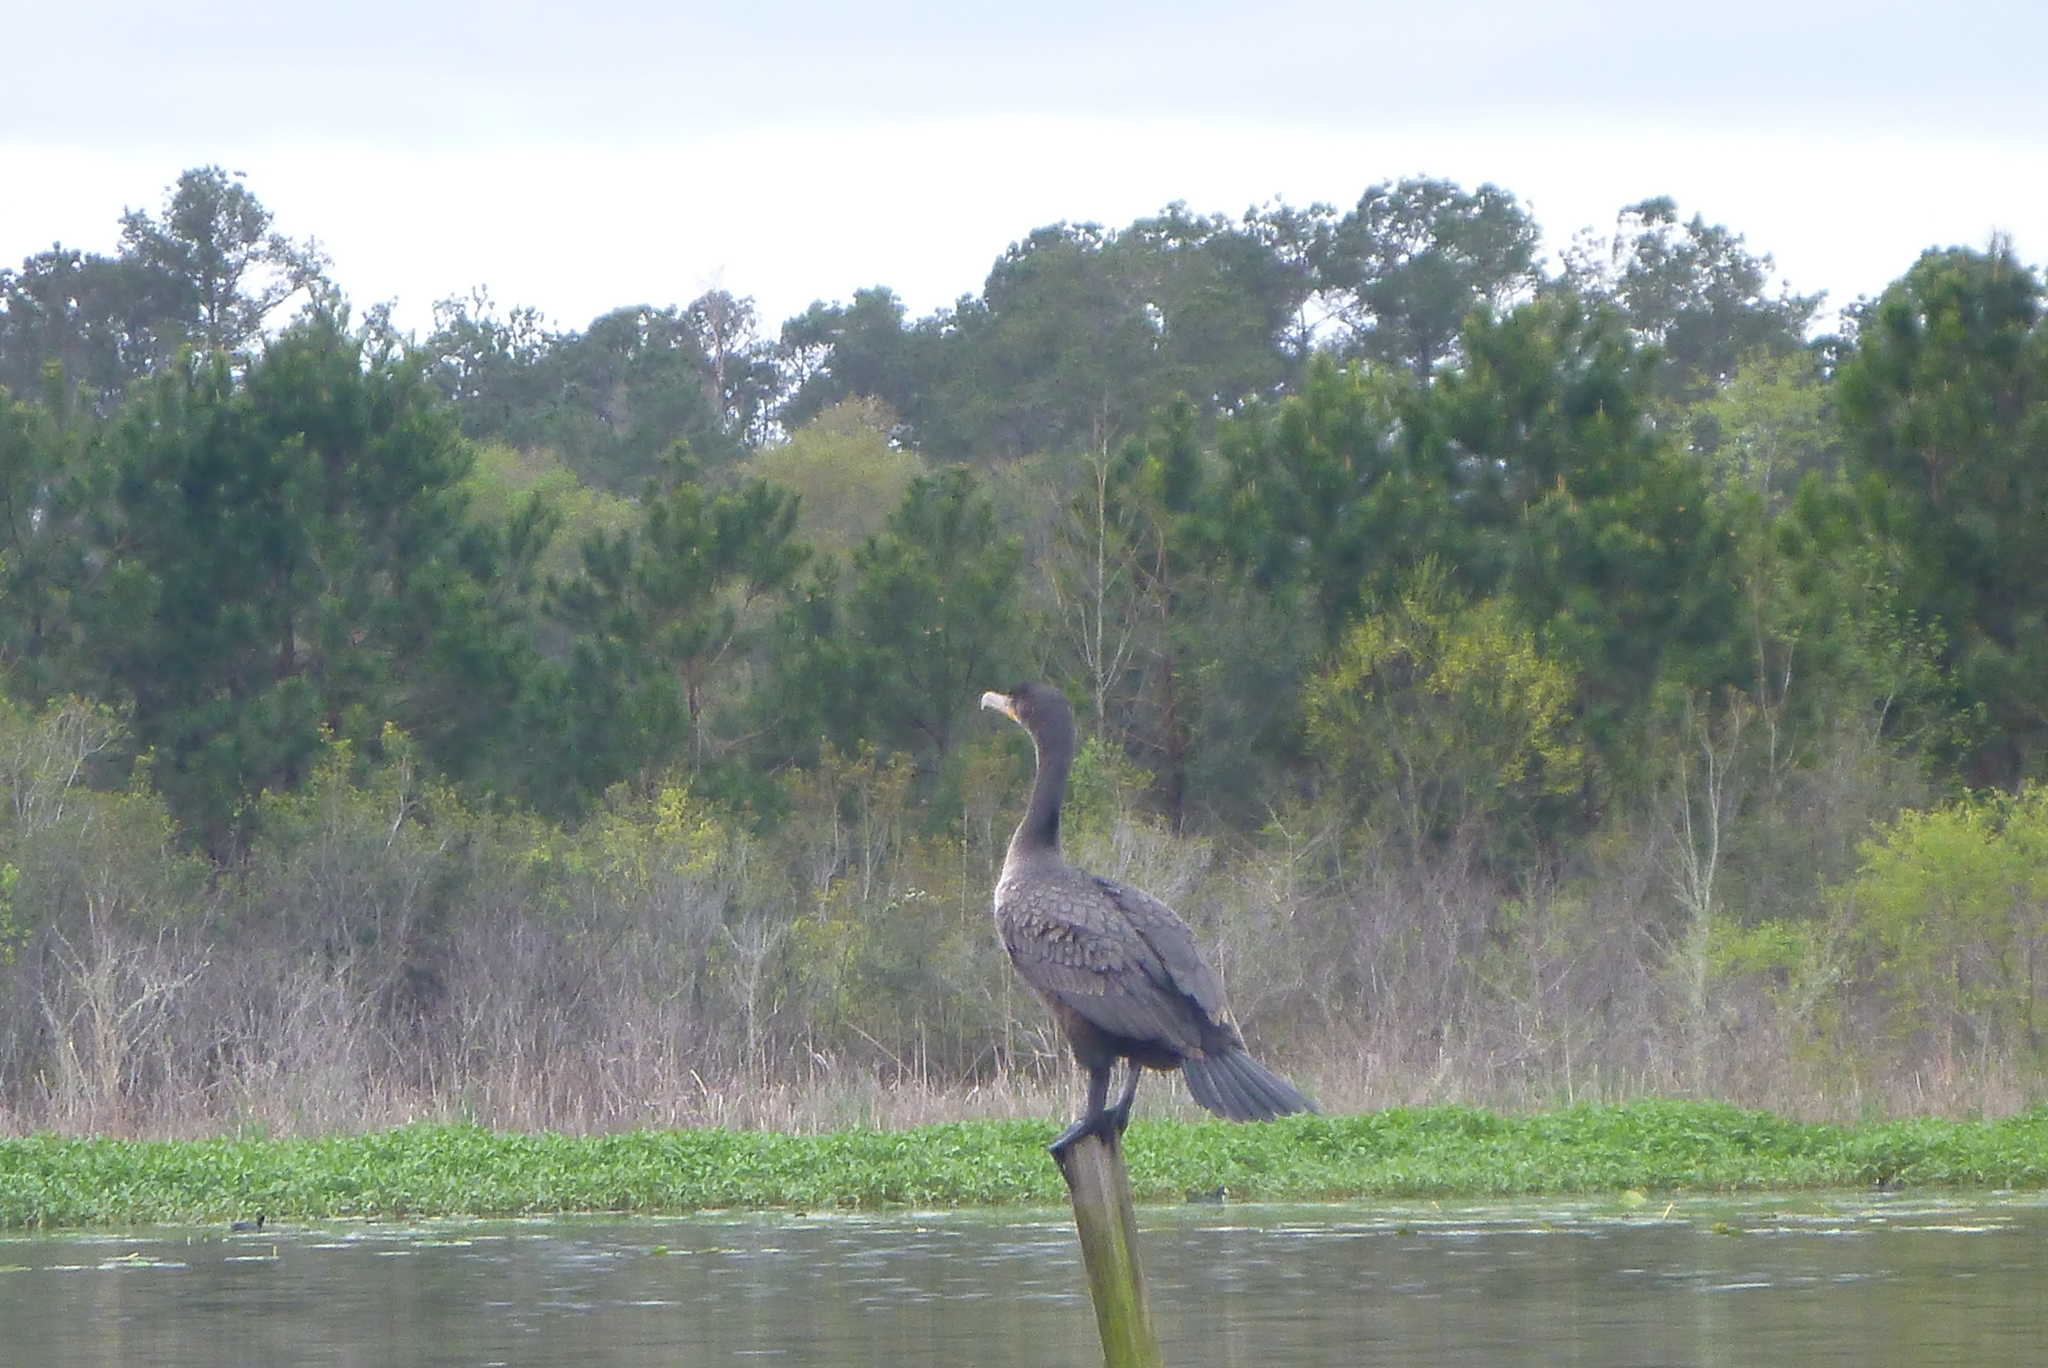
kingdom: Animalia
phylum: Chordata
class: Aves
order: Suliformes
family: Phalacrocoracidae
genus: Phalacrocorax
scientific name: Phalacrocorax auritus
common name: Double-crested cormorant
